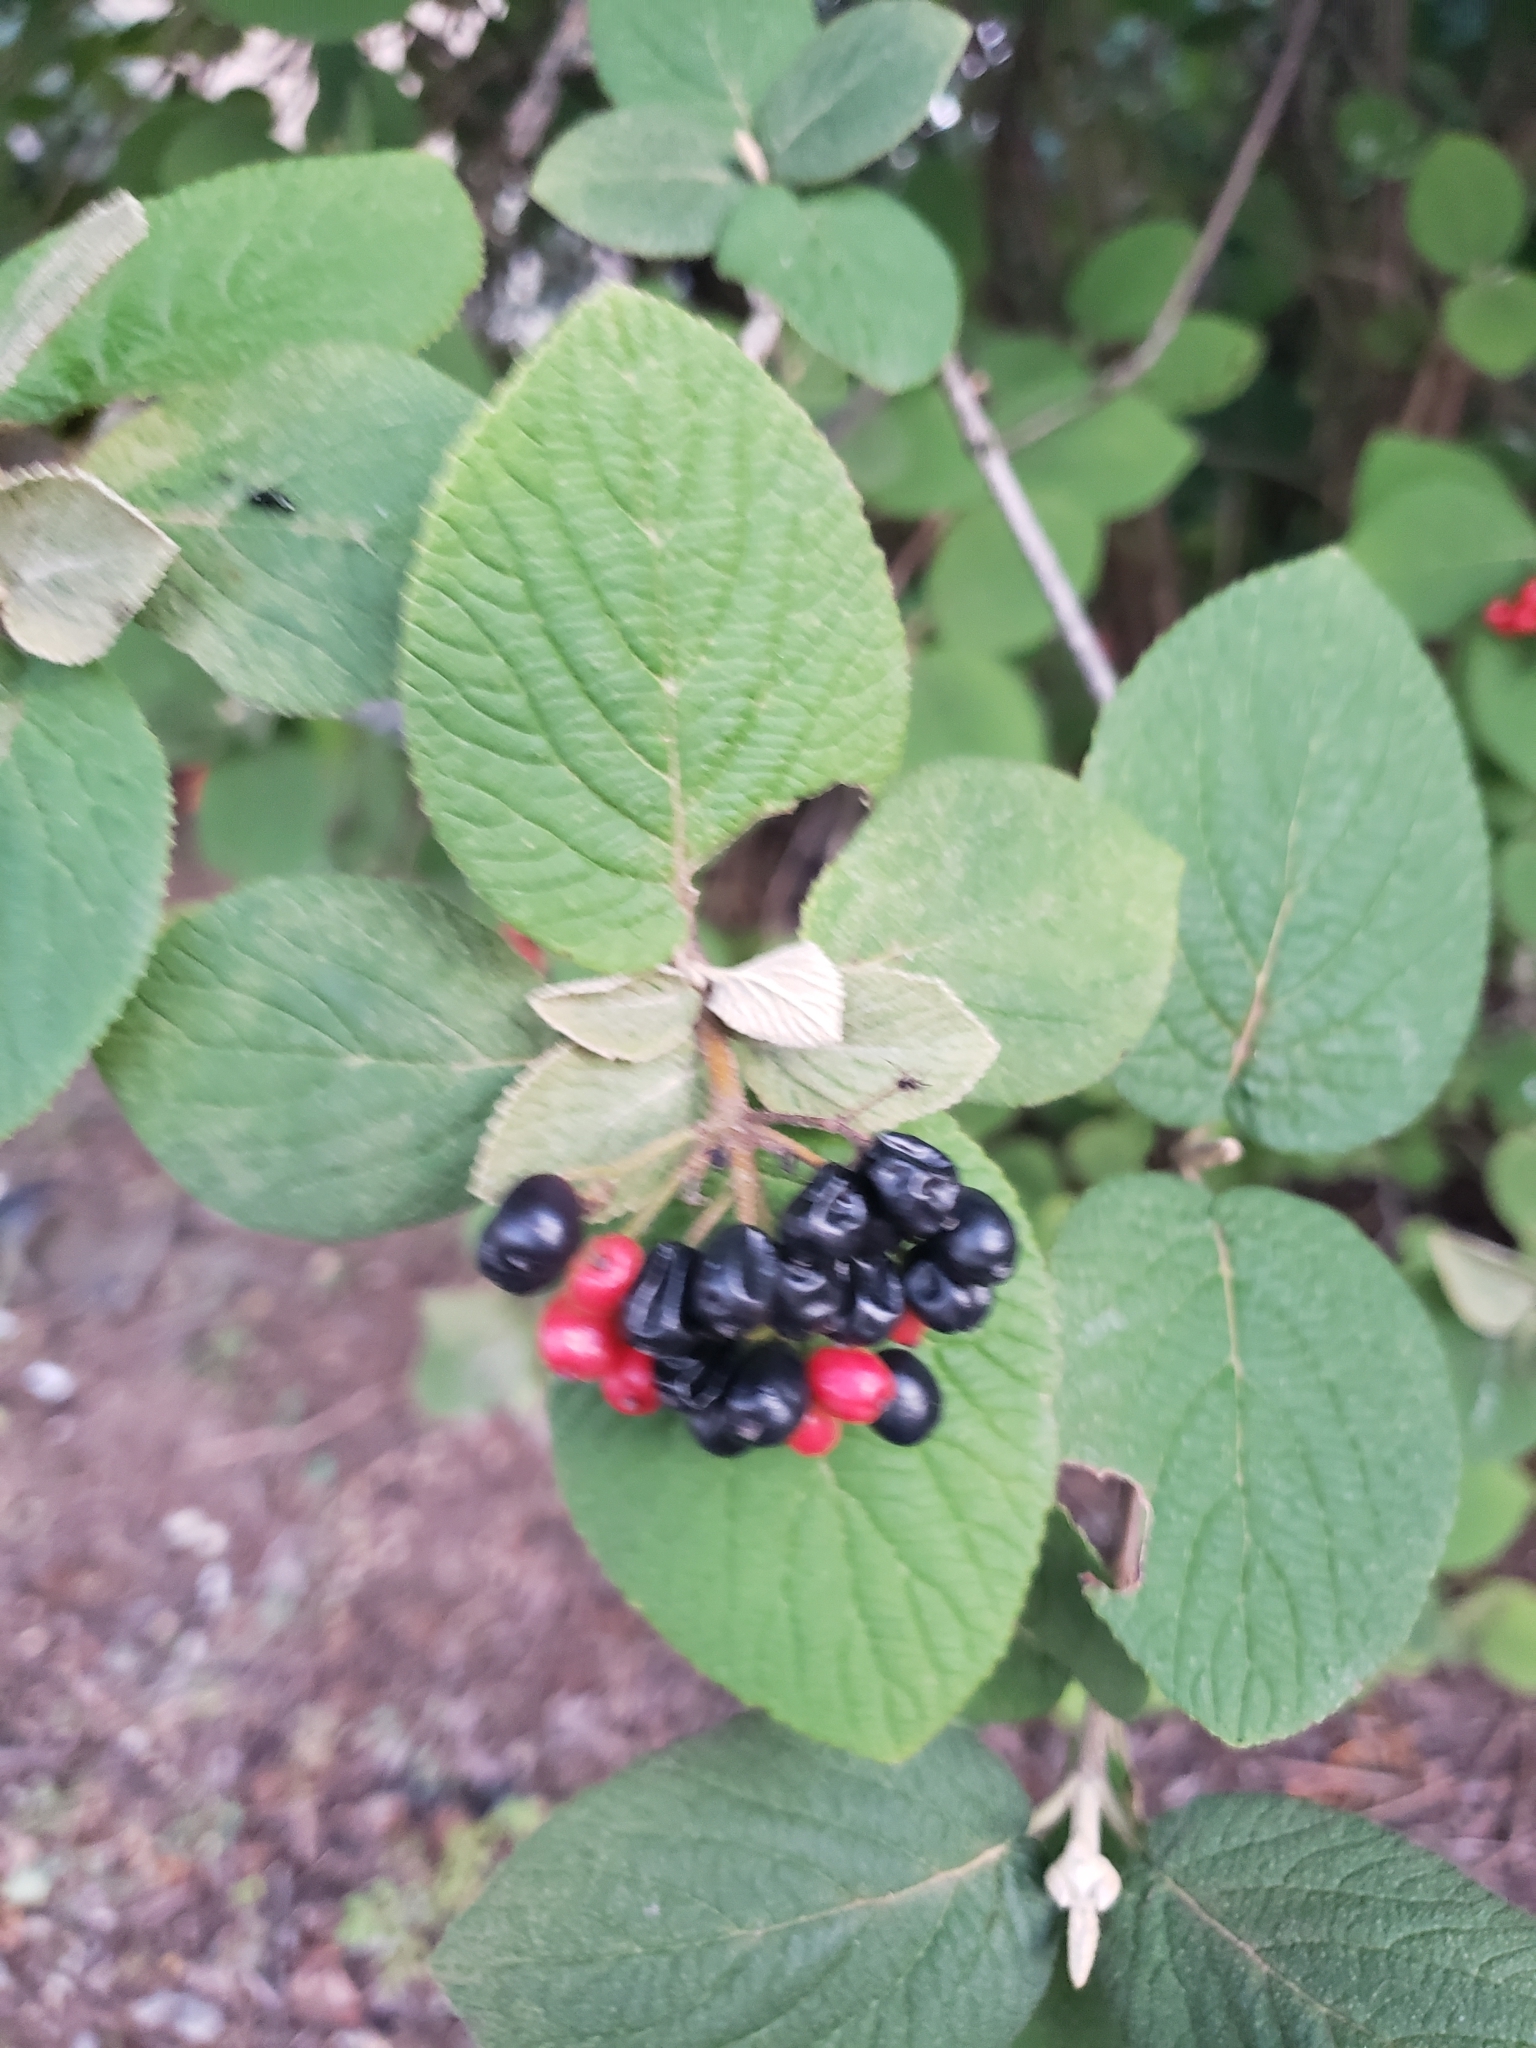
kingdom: Plantae
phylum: Tracheophyta
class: Magnoliopsida
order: Dipsacales
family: Viburnaceae
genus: Viburnum
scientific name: Viburnum lantana
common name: Wayfaring tree
